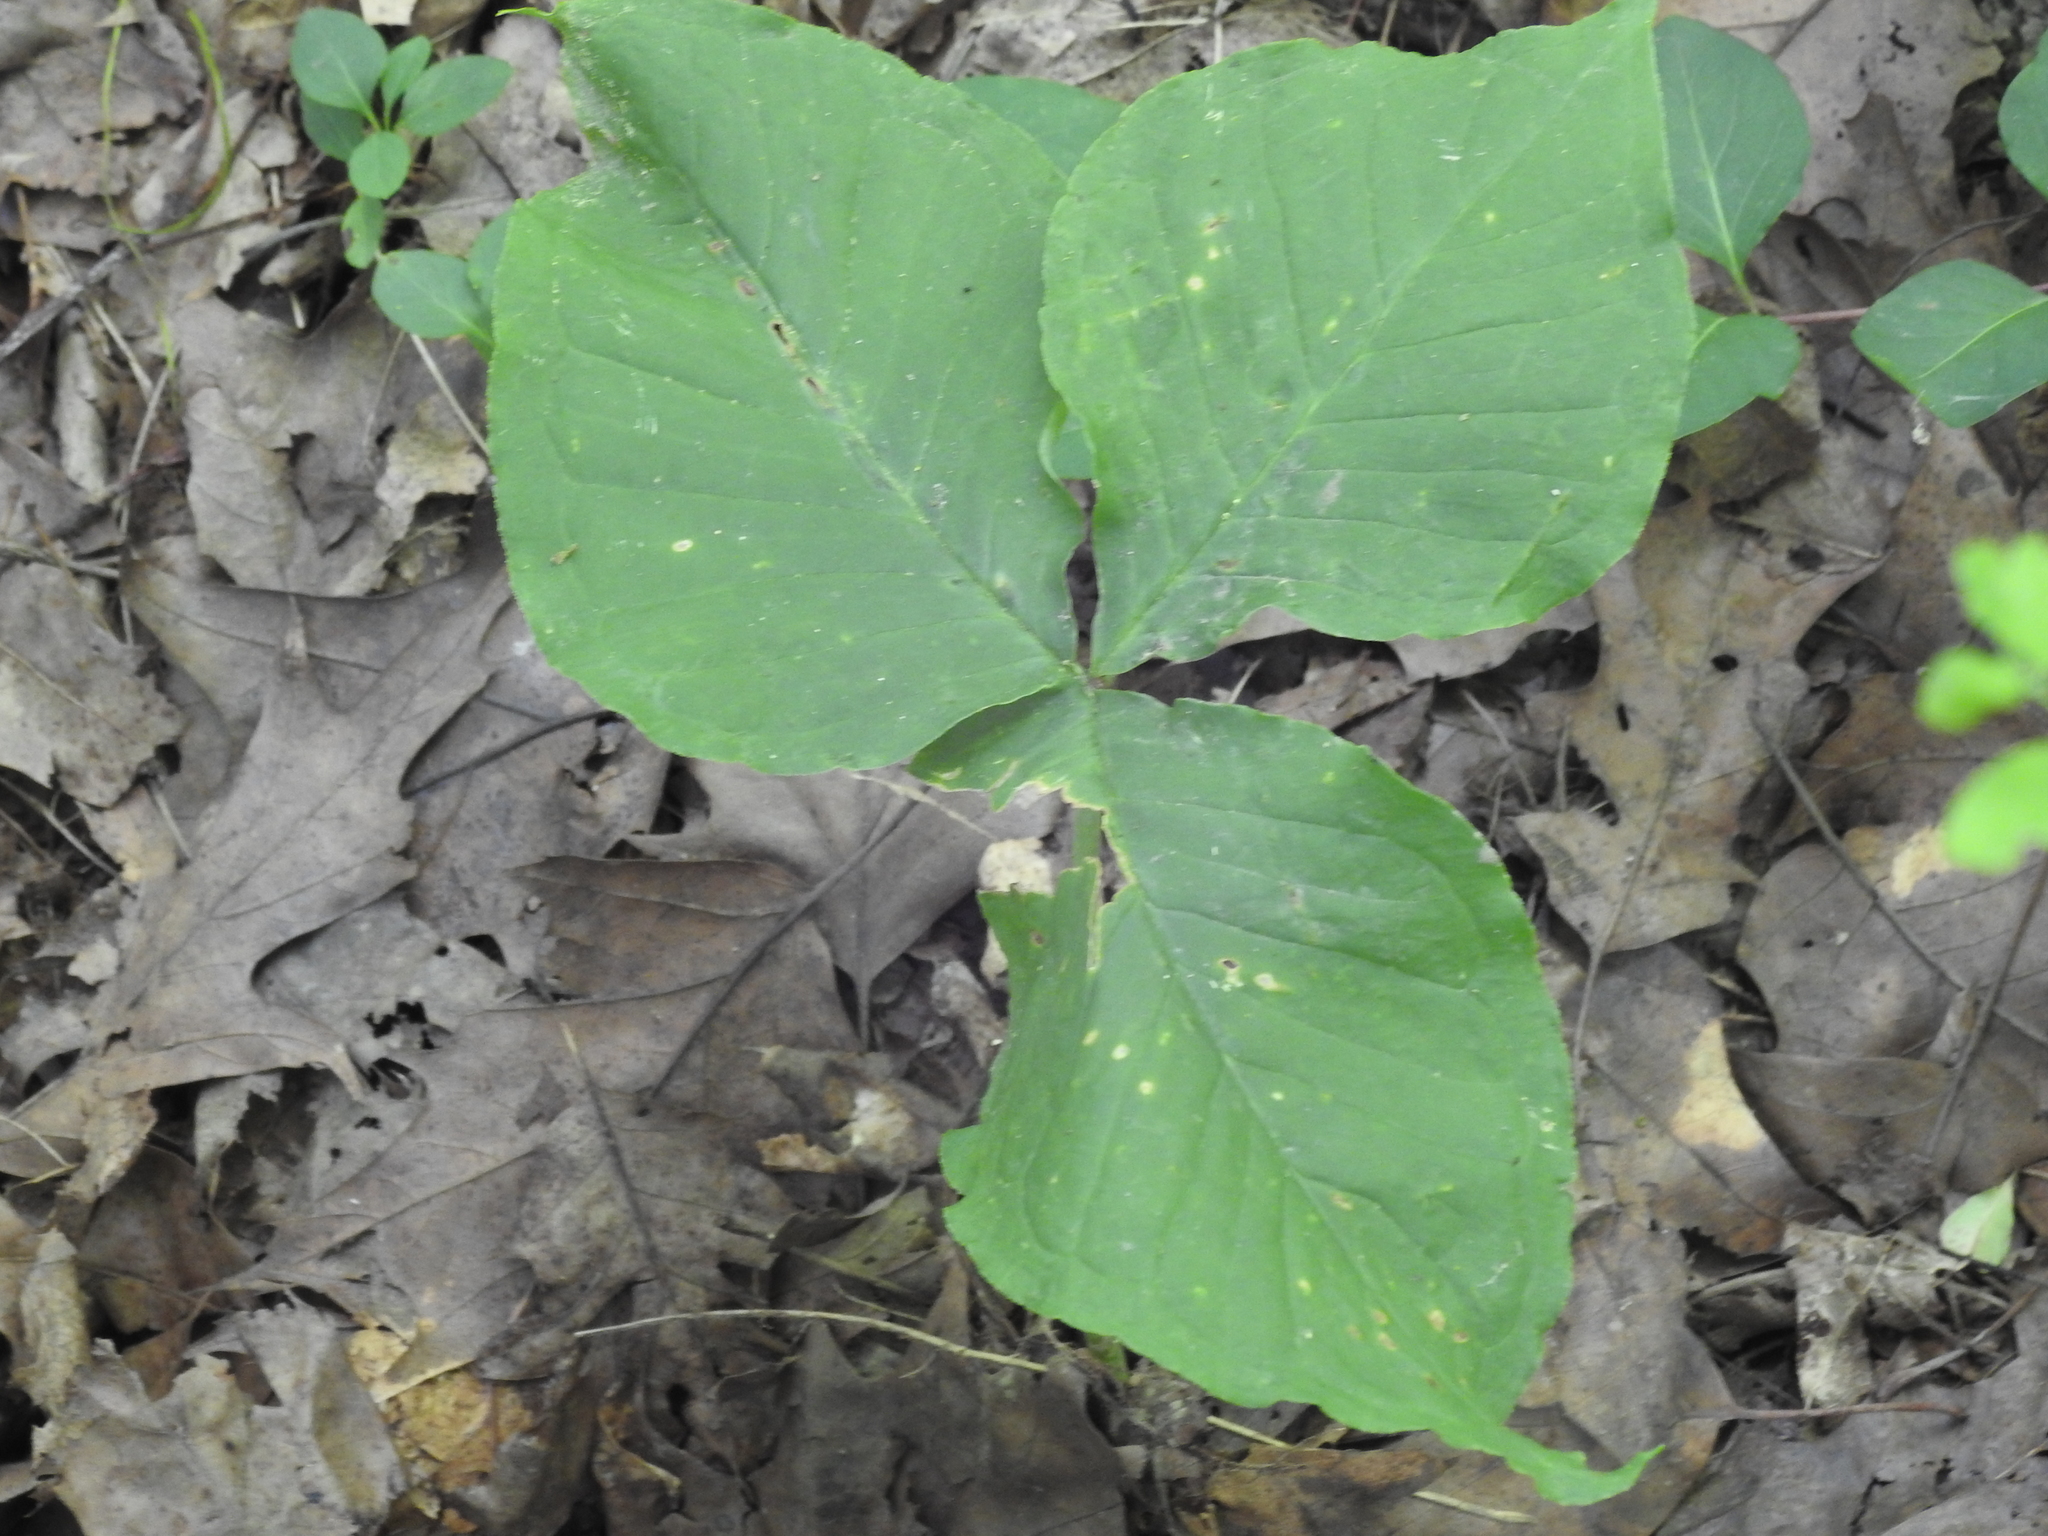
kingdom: Plantae
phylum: Tracheophyta
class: Liliopsida
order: Alismatales
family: Araceae
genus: Arisaema
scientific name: Arisaema triphyllum
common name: Jack-in-the-pulpit
